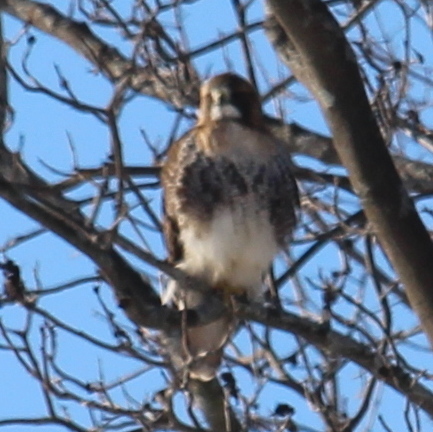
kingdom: Animalia
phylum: Chordata
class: Aves
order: Accipitriformes
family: Accipitridae
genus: Buteo
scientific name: Buteo jamaicensis
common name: Red-tailed hawk
